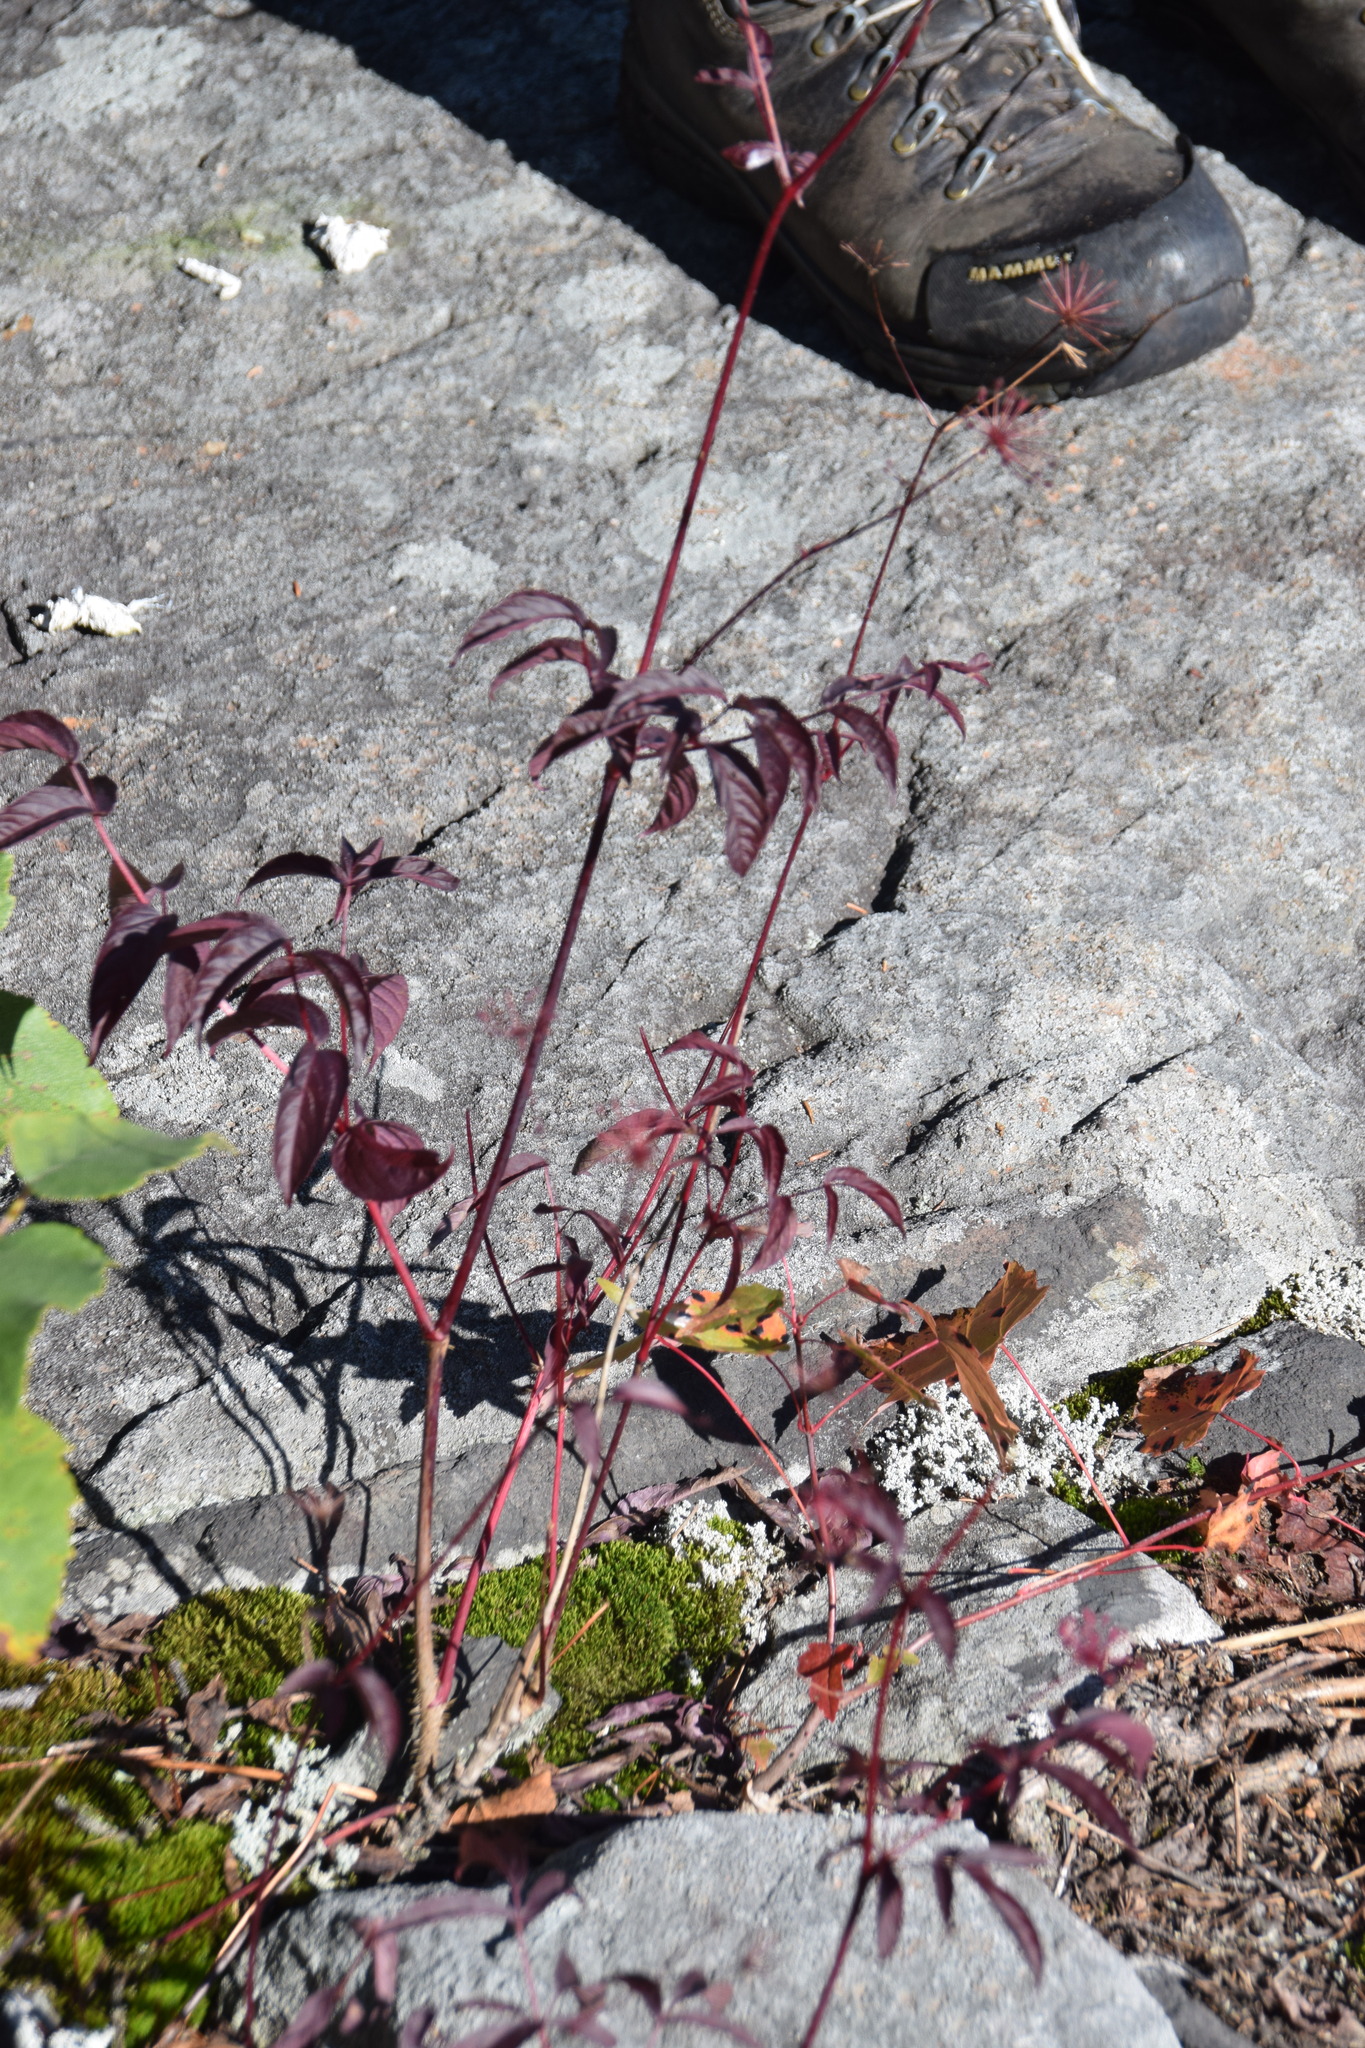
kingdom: Plantae
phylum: Tracheophyta
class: Magnoliopsida
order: Apiales
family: Araliaceae
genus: Aralia
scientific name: Aralia hispida
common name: Bristly sarsaparilla
